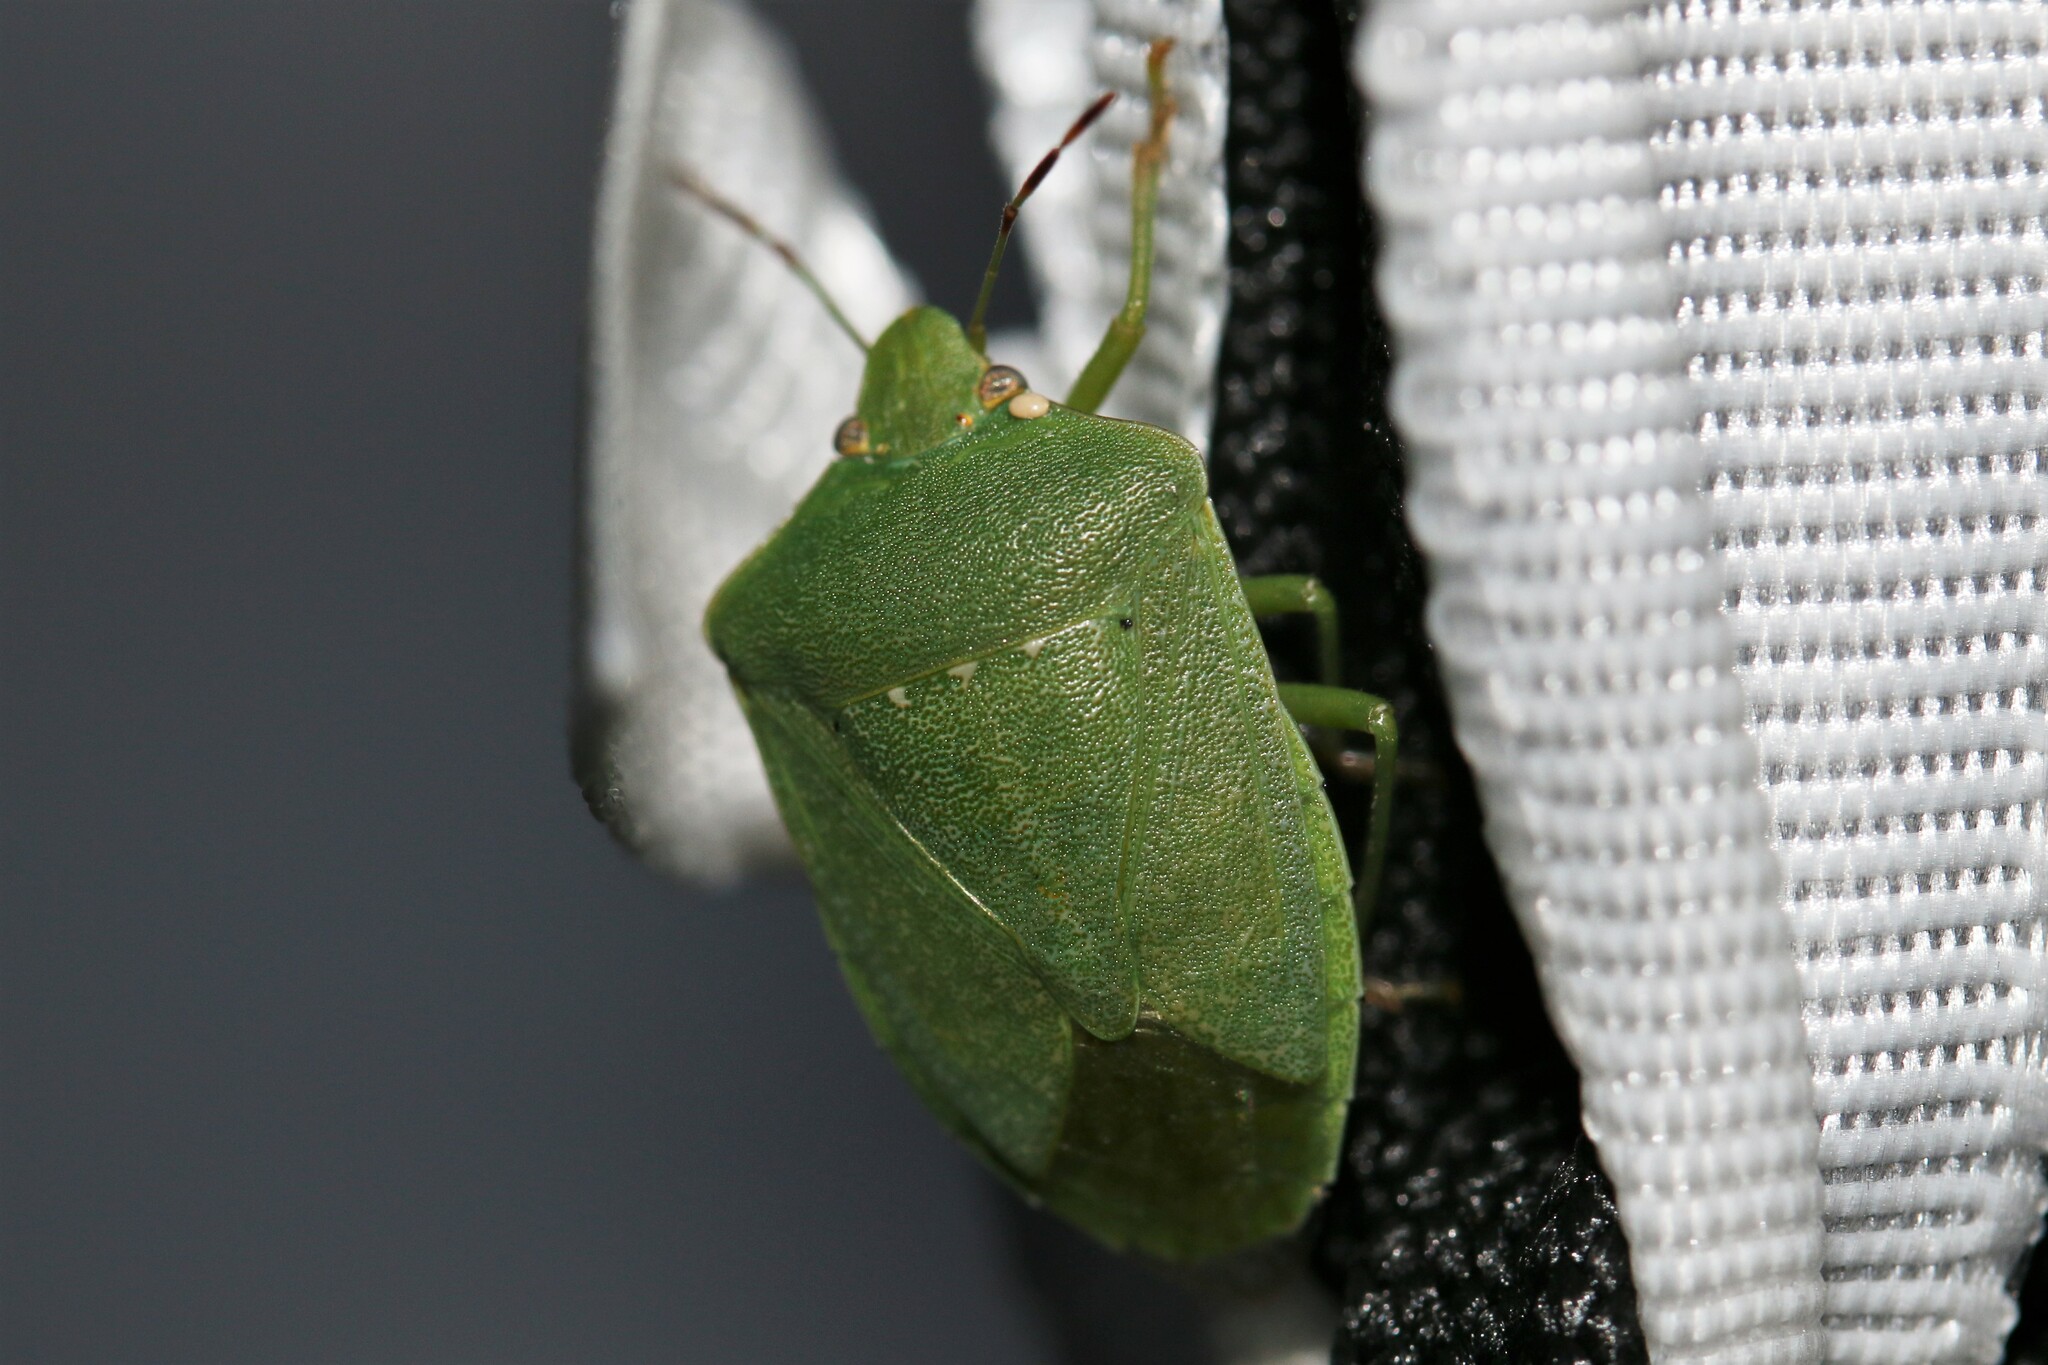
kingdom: Animalia
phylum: Arthropoda
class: Insecta
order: Hemiptera
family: Pentatomidae
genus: Nezara
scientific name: Nezara viridula
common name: Southern green stink bug
